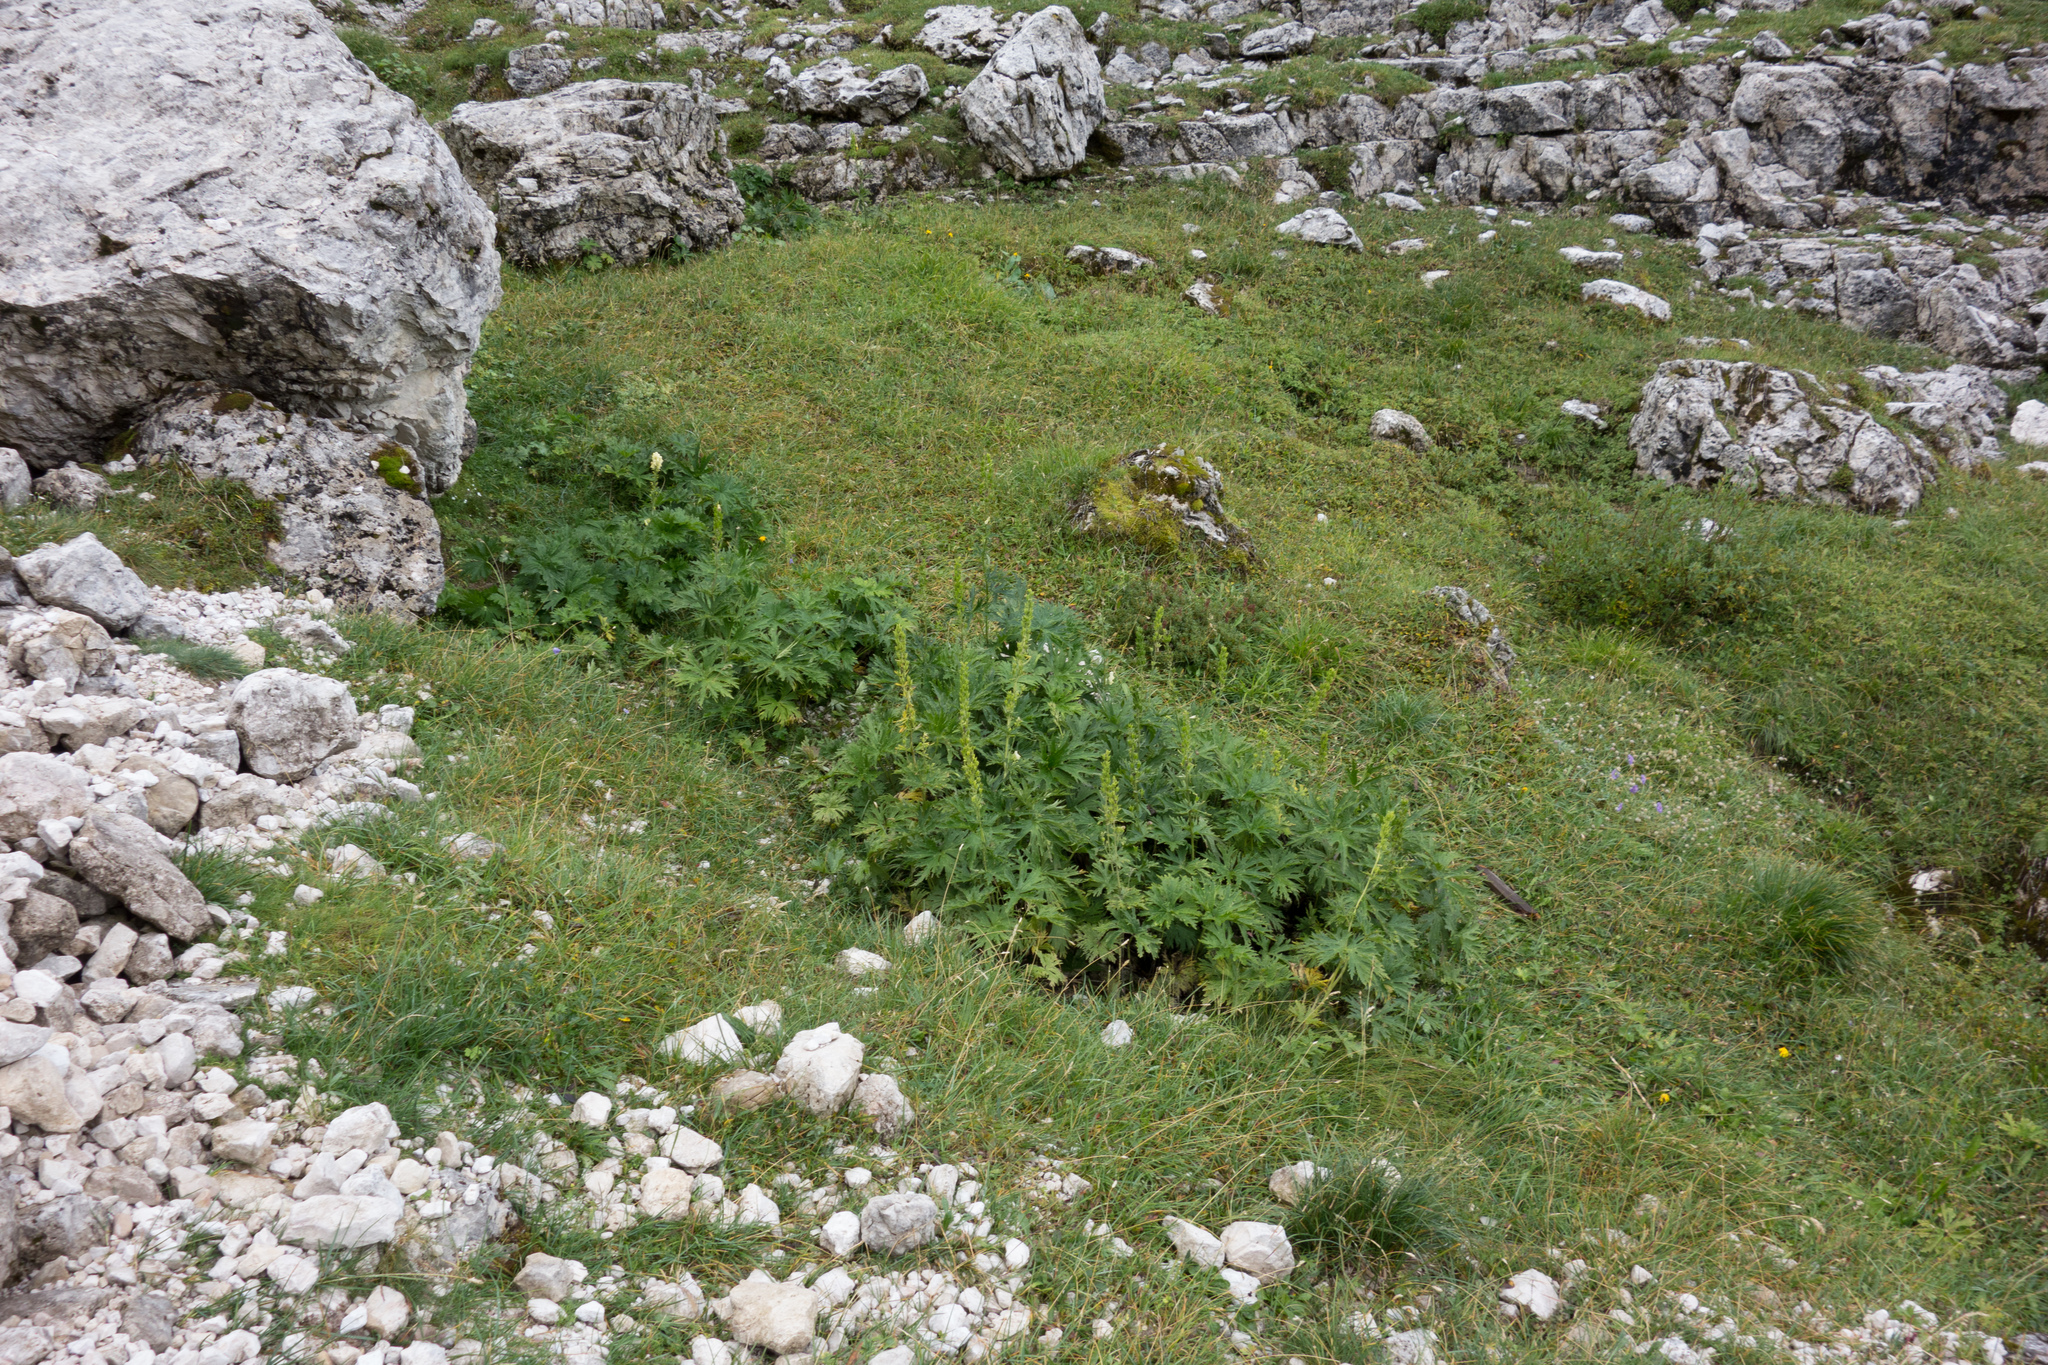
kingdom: Plantae
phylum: Tracheophyta
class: Magnoliopsida
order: Ranunculales
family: Ranunculaceae
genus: Aconitum
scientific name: Aconitum lycoctonum
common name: Wolf's-bane
